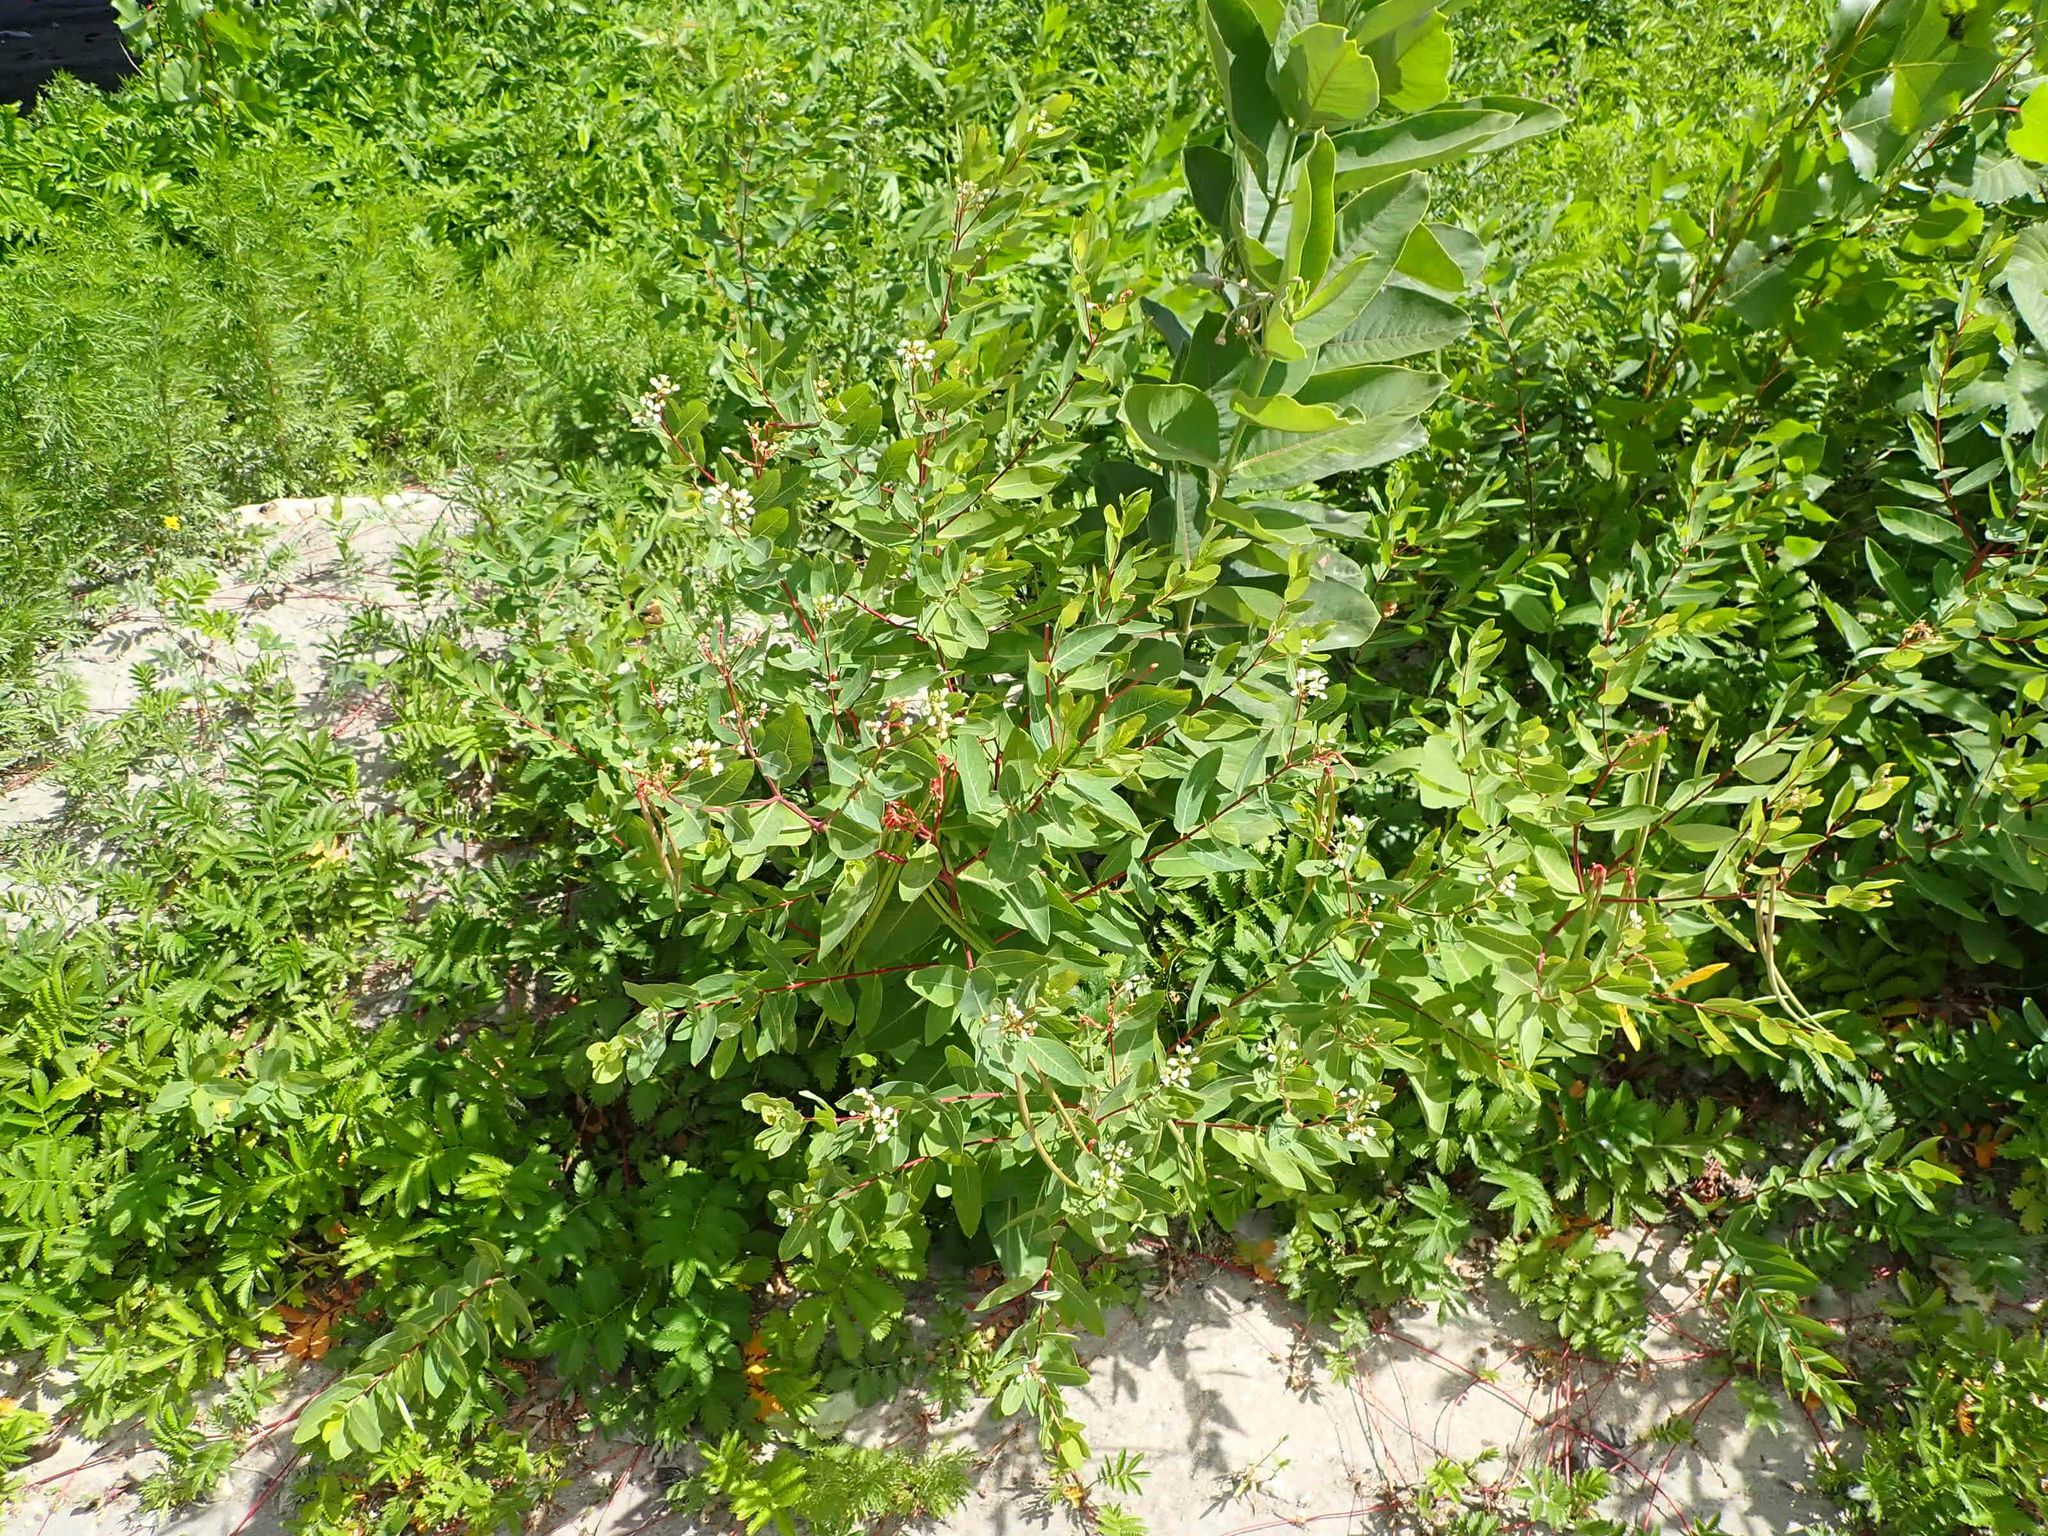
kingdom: Plantae
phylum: Tracheophyta
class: Magnoliopsida
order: Gentianales
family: Apocynaceae
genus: Apocynum
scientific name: Apocynum cannabinum
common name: Hemp dogbane
